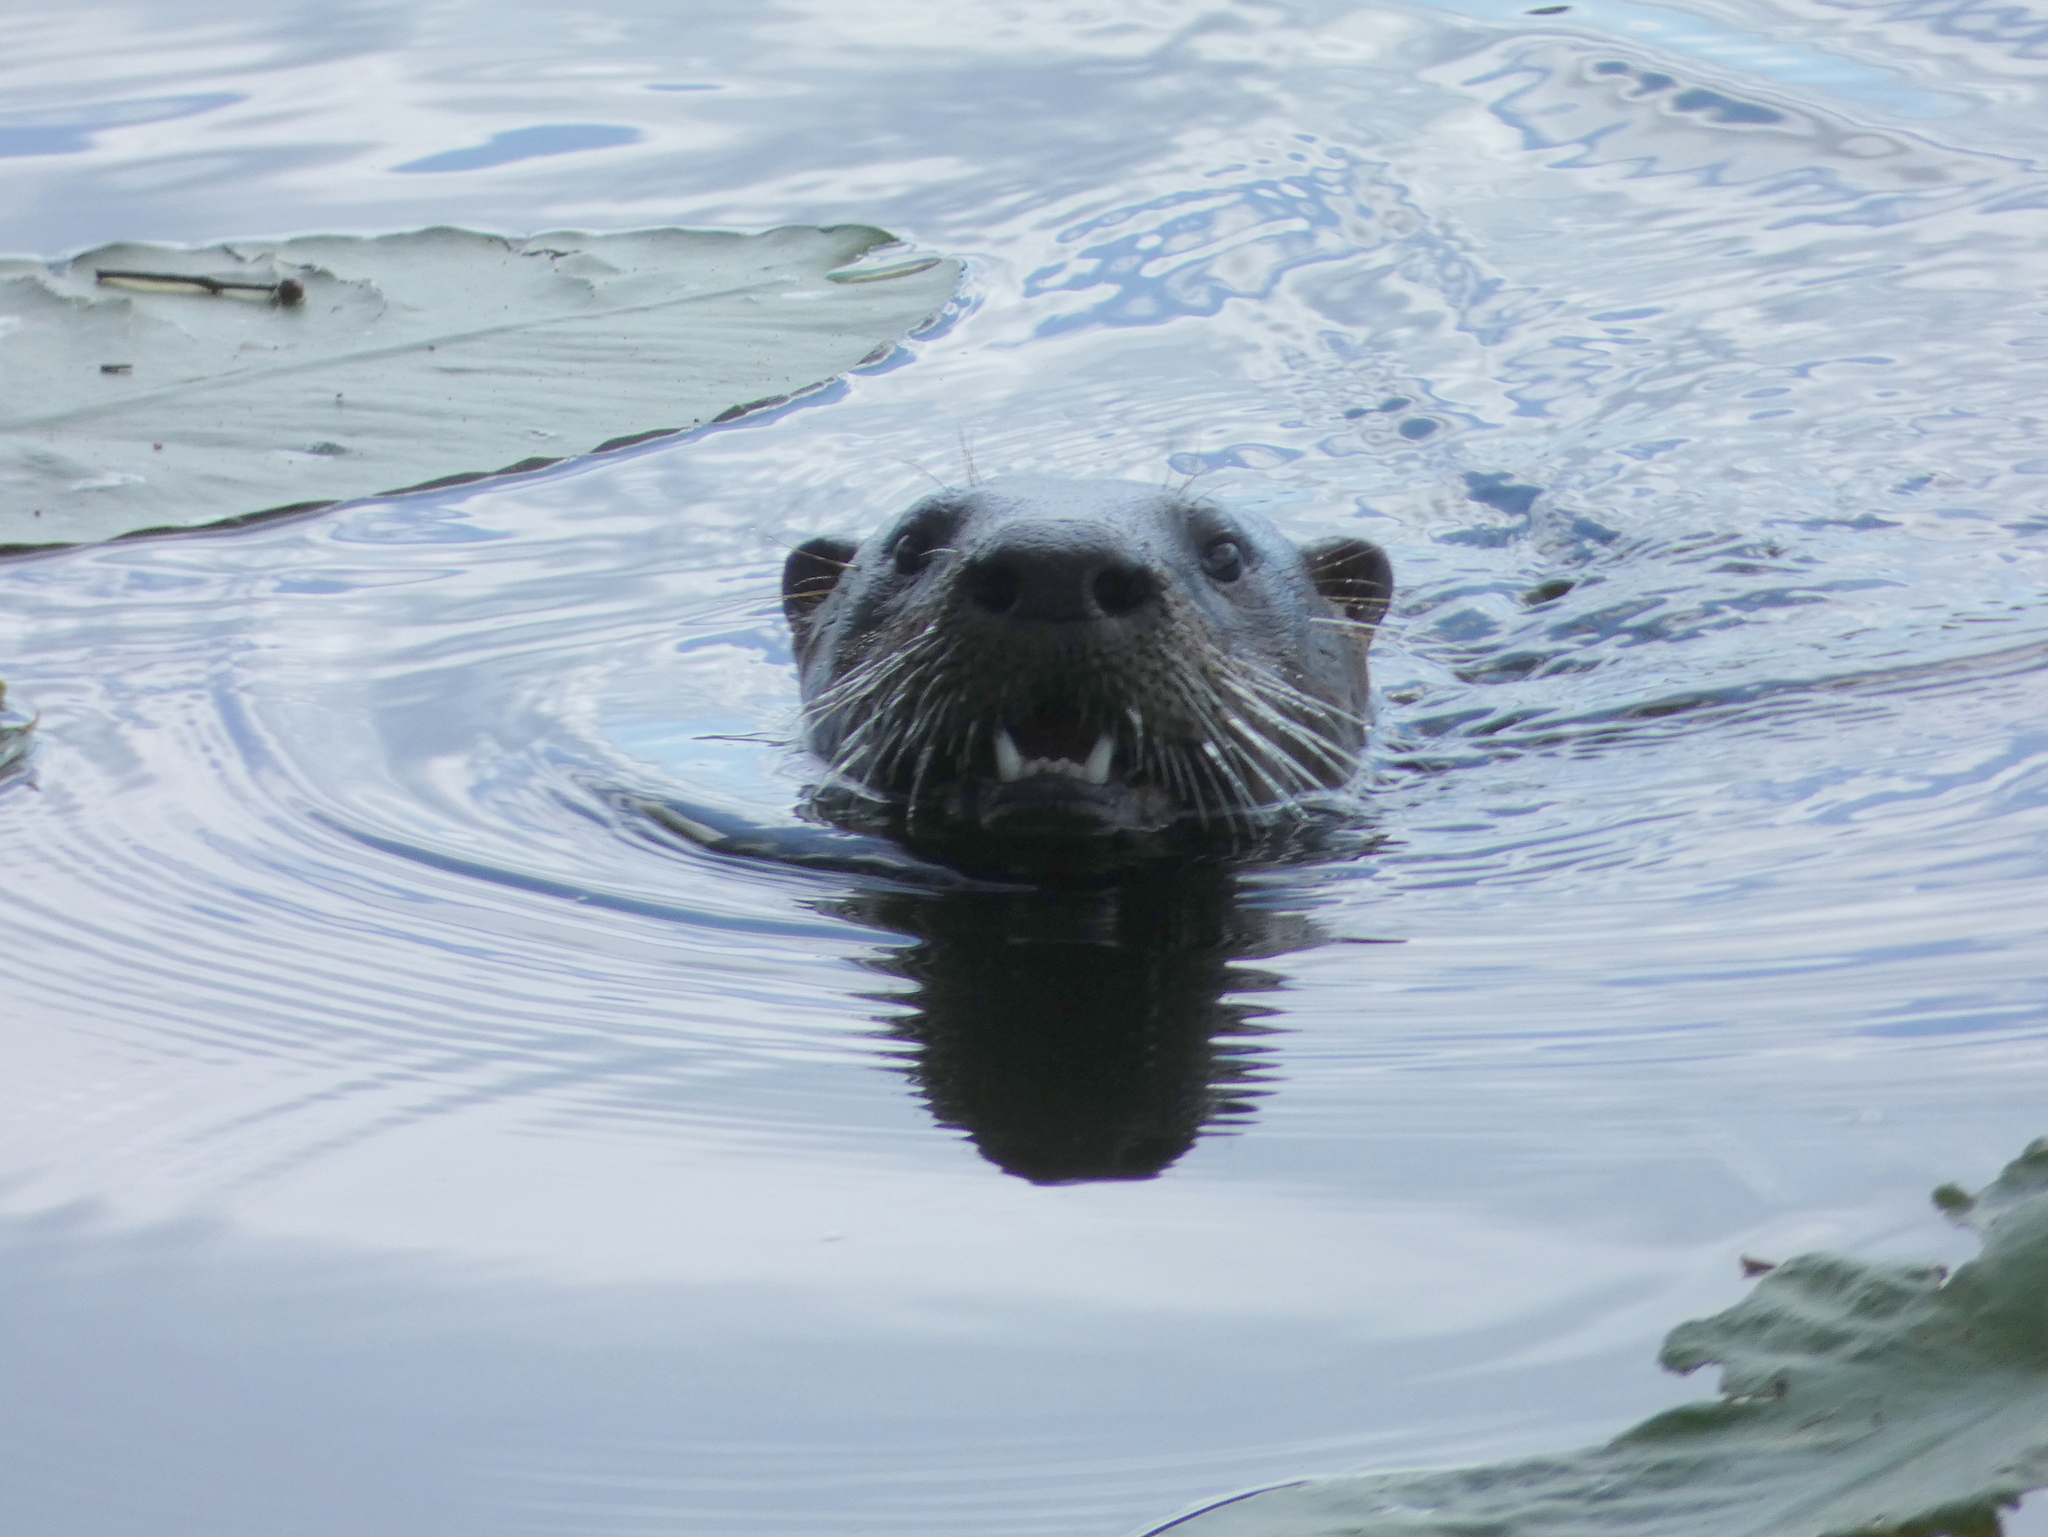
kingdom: Animalia
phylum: Chordata
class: Mammalia
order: Carnivora
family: Mustelidae
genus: Lontra
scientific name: Lontra canadensis
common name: North american river otter
